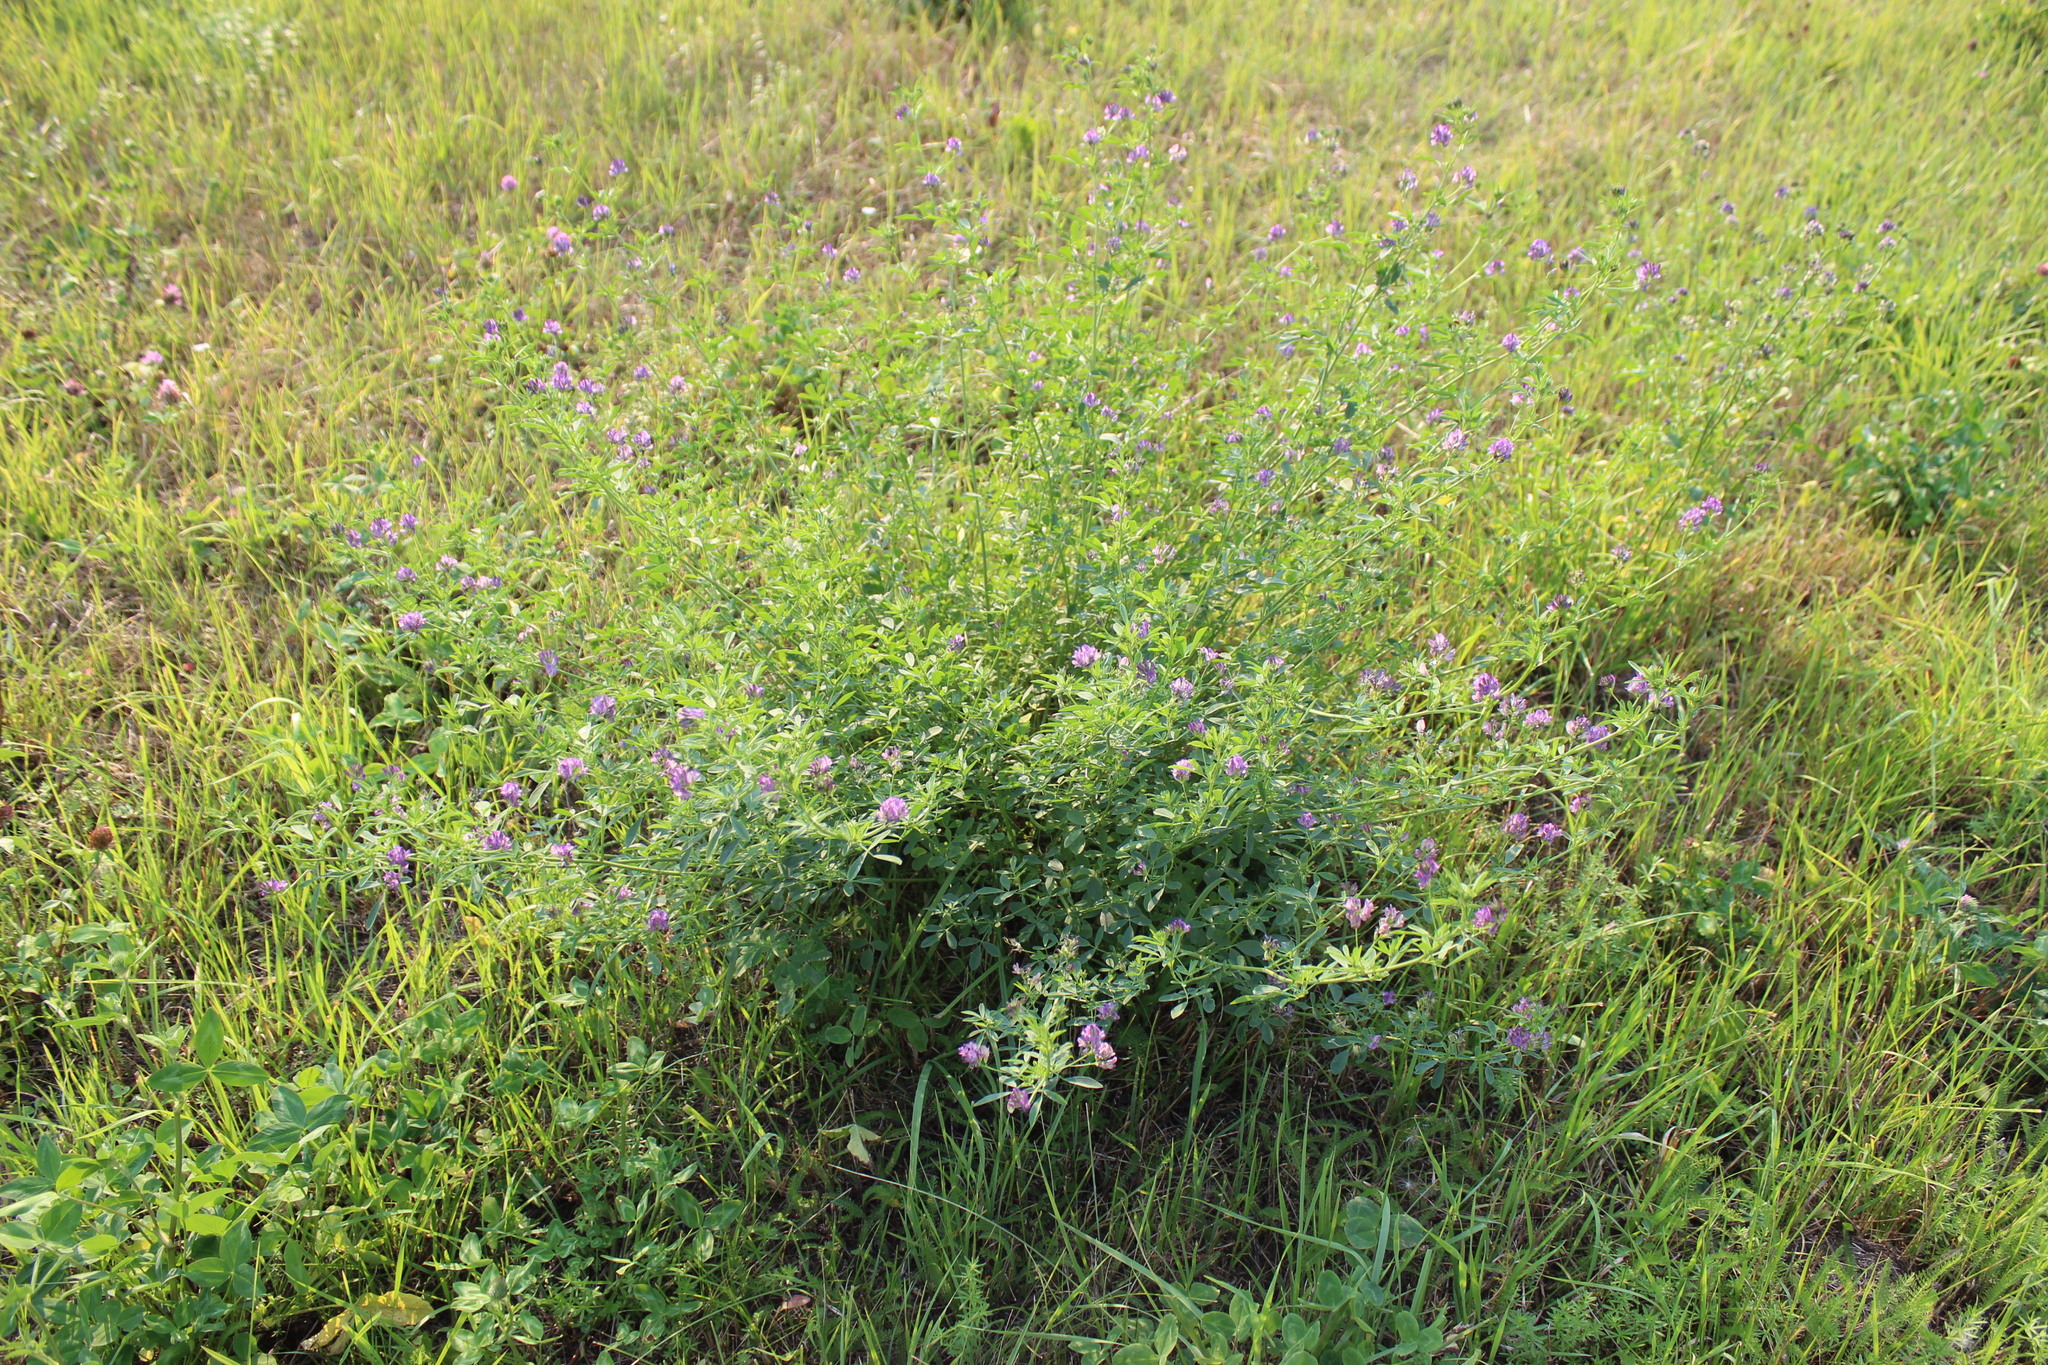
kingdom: Plantae
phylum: Tracheophyta
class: Magnoliopsida
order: Fabales
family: Fabaceae
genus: Medicago
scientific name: Medicago varia
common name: Sand lucerne
